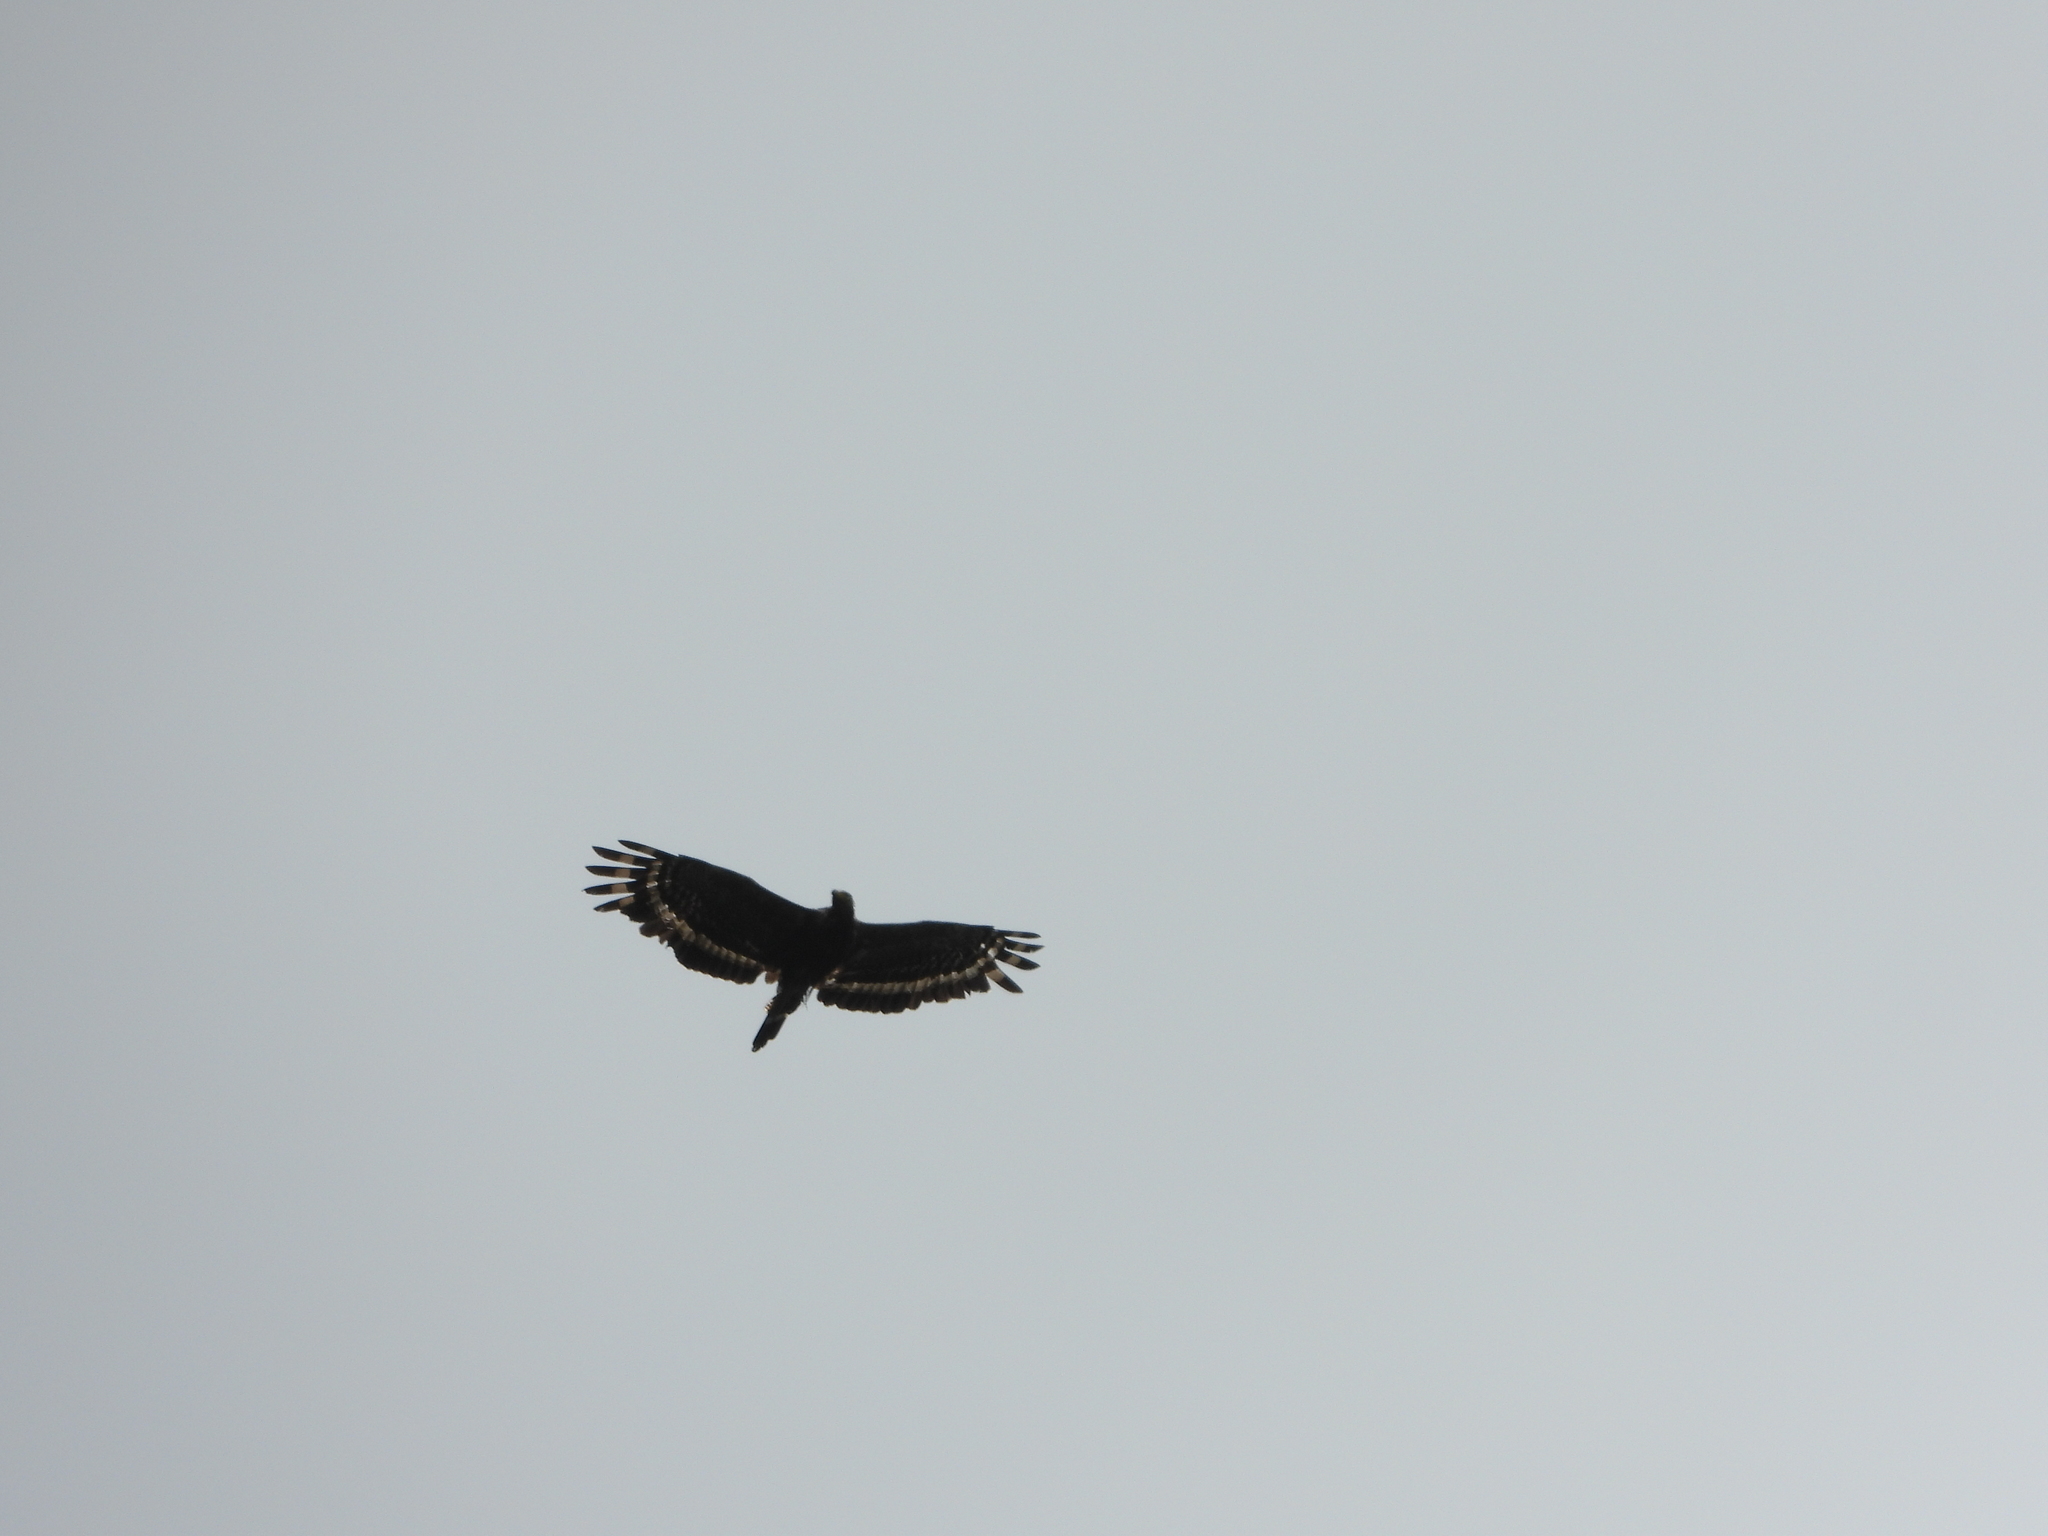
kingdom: Animalia
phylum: Chordata
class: Aves
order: Accipitriformes
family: Accipitridae
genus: Spilornis
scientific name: Spilornis cheela
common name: Crested serpent eagle
